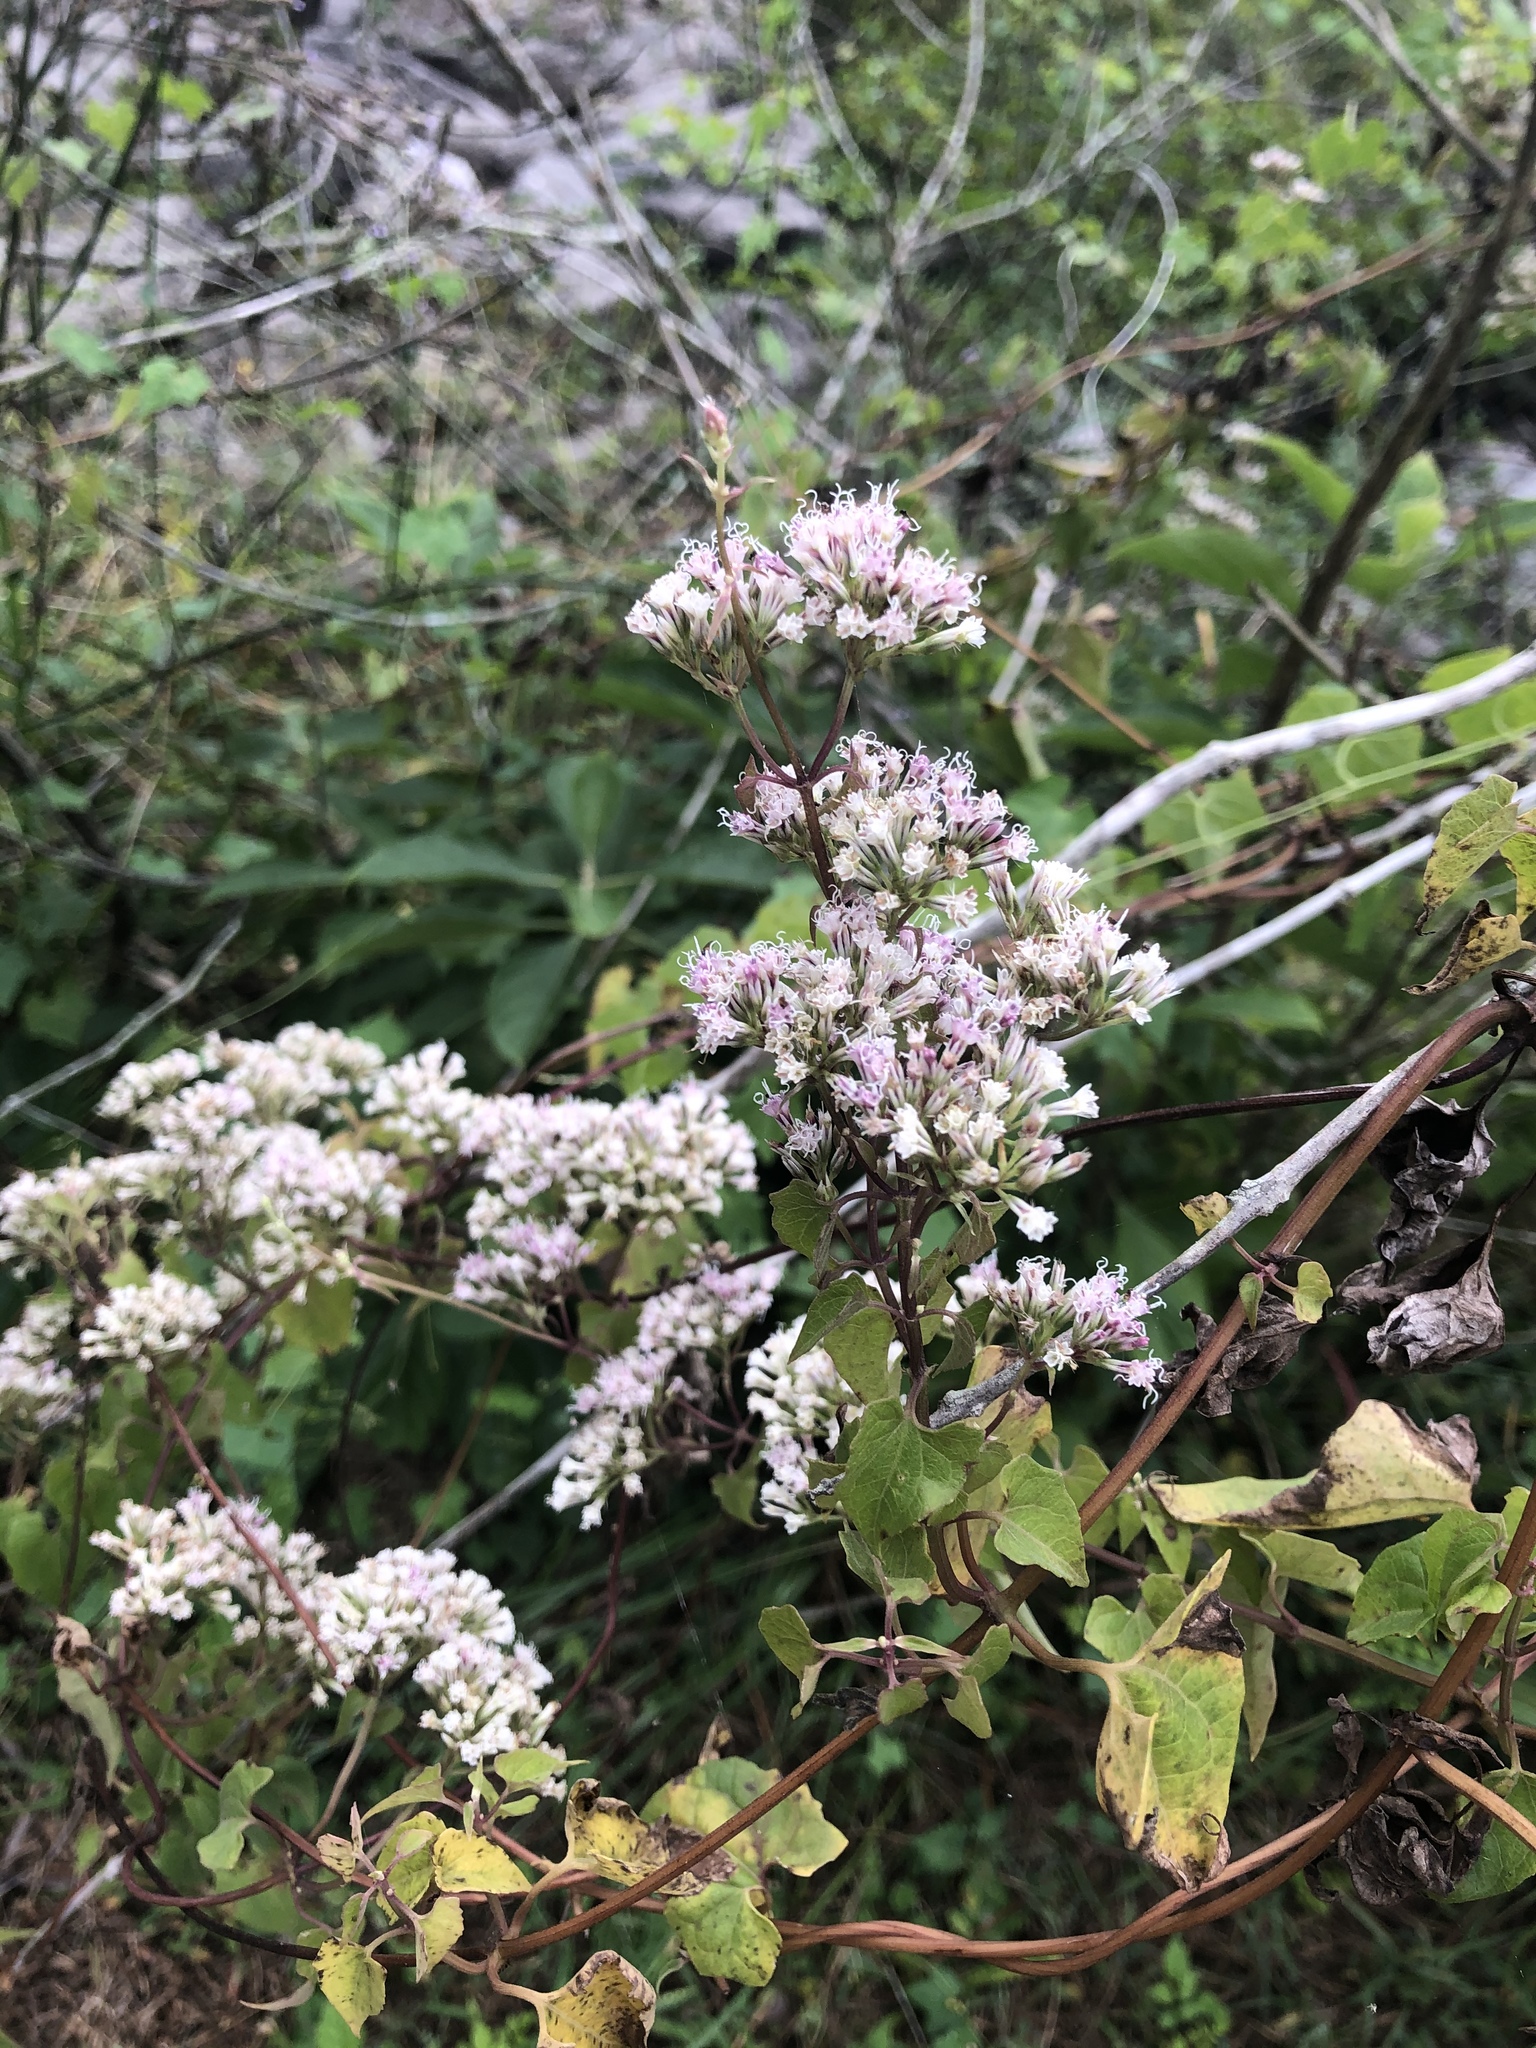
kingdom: Plantae
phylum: Tracheophyta
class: Magnoliopsida
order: Asterales
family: Asteraceae
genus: Mikania
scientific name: Mikania scandens
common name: Climbing hempvine
